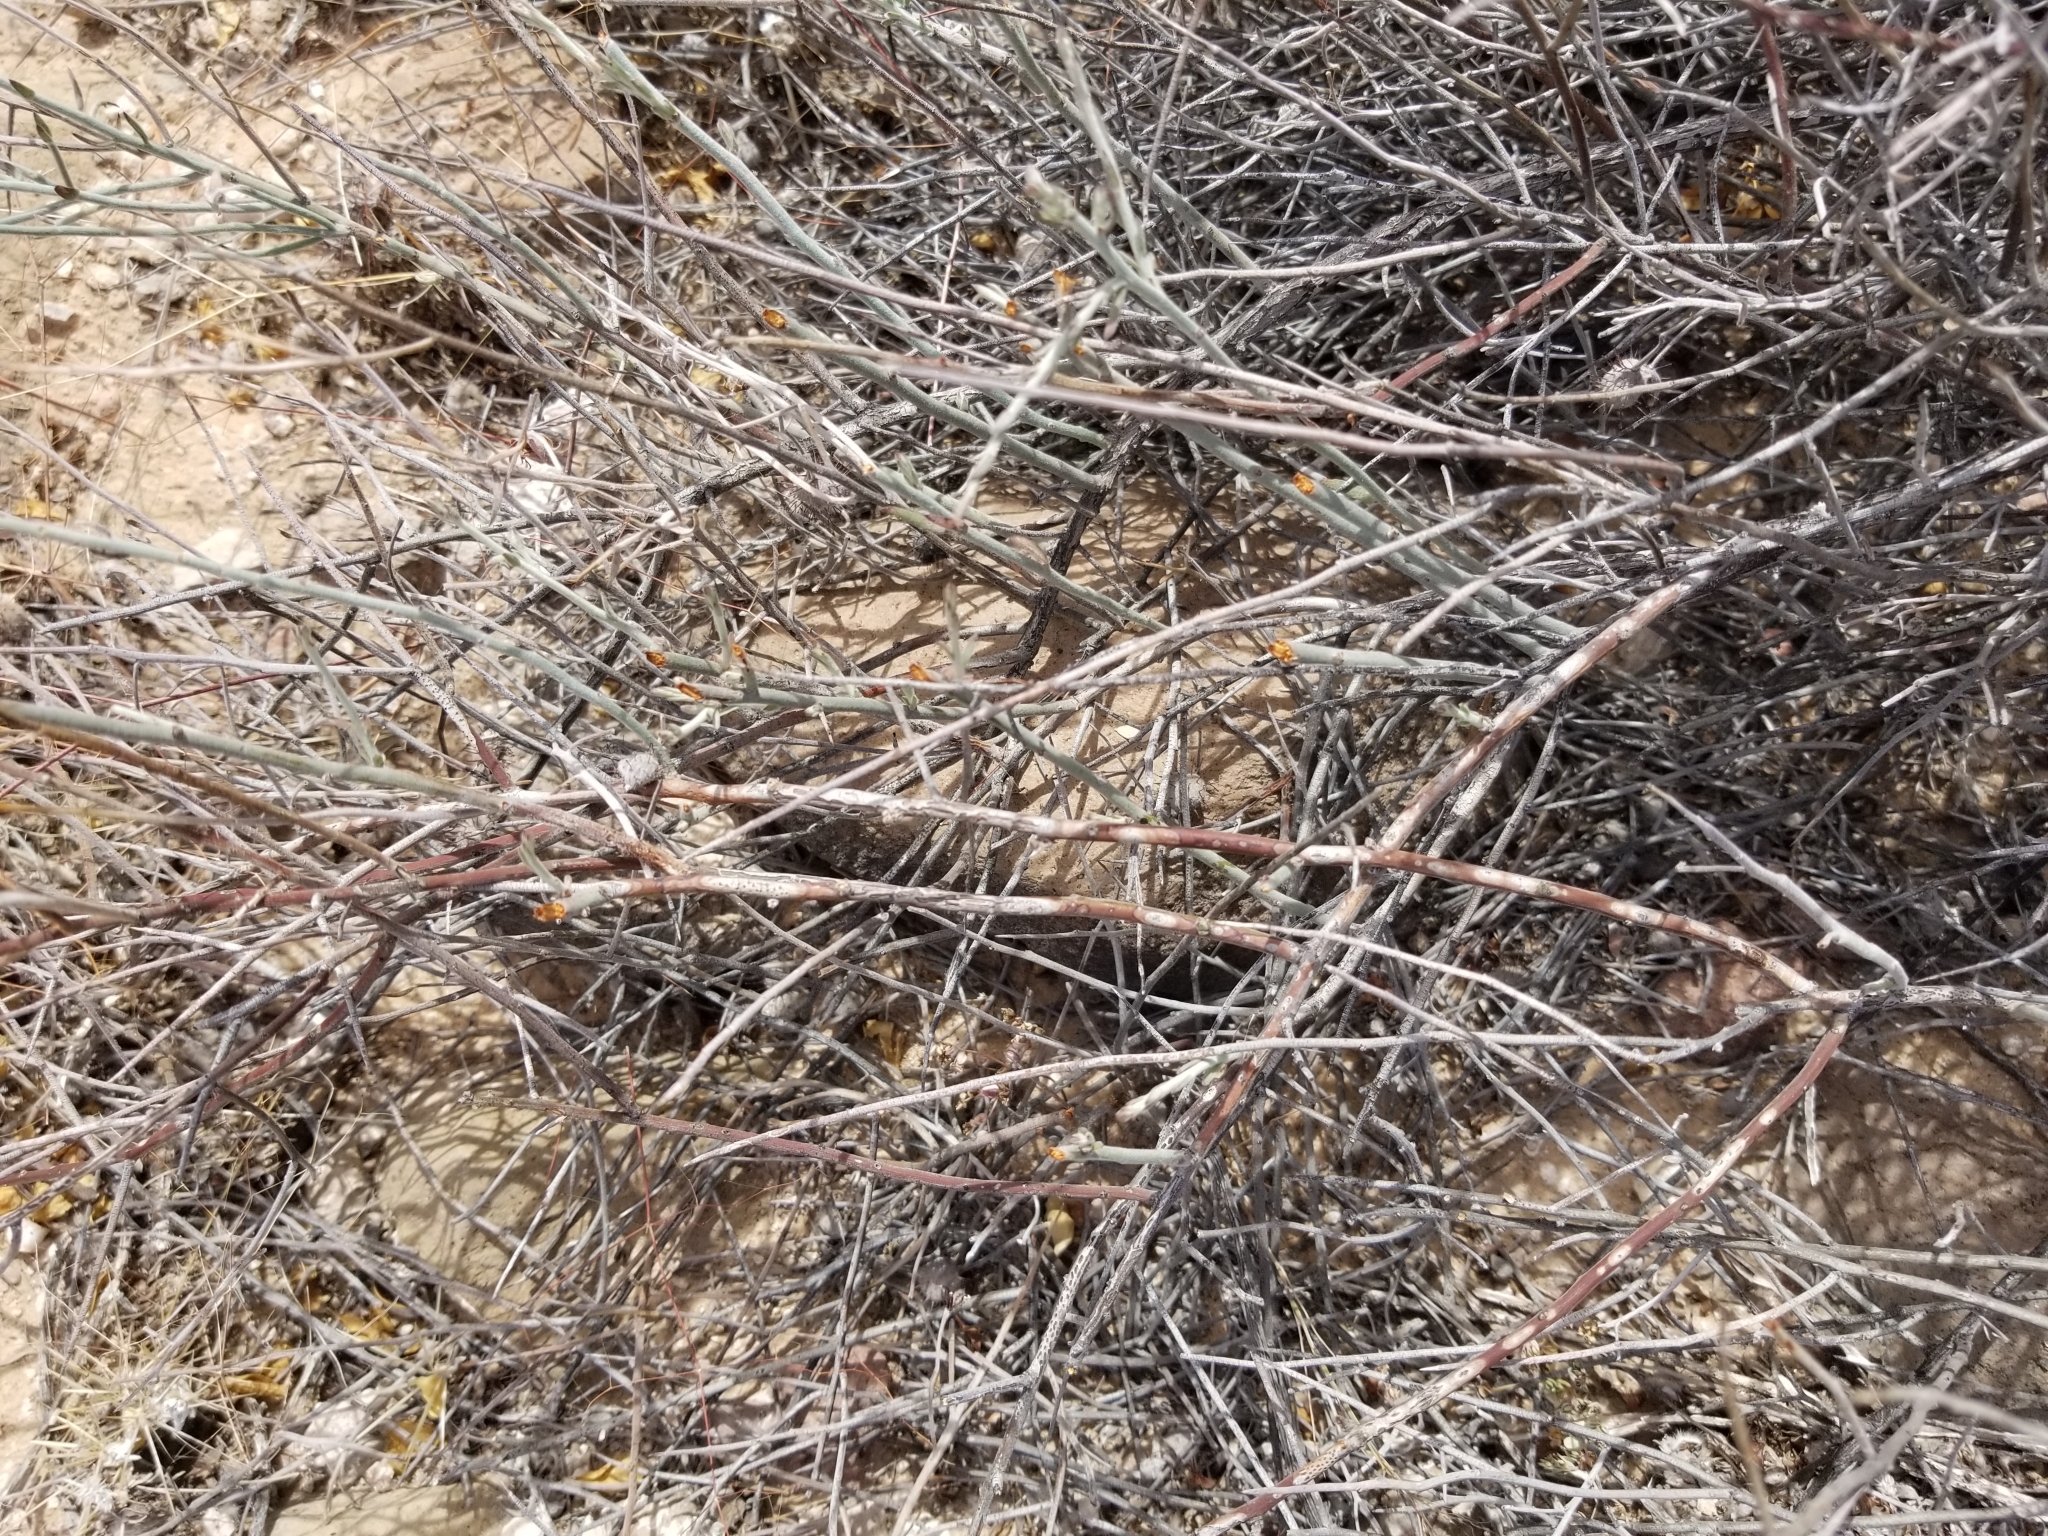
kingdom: Plantae
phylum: Tracheophyta
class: Magnoliopsida
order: Zygophyllales
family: Krameriaceae
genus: Krameria
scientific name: Krameria bicolor
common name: White ratany
